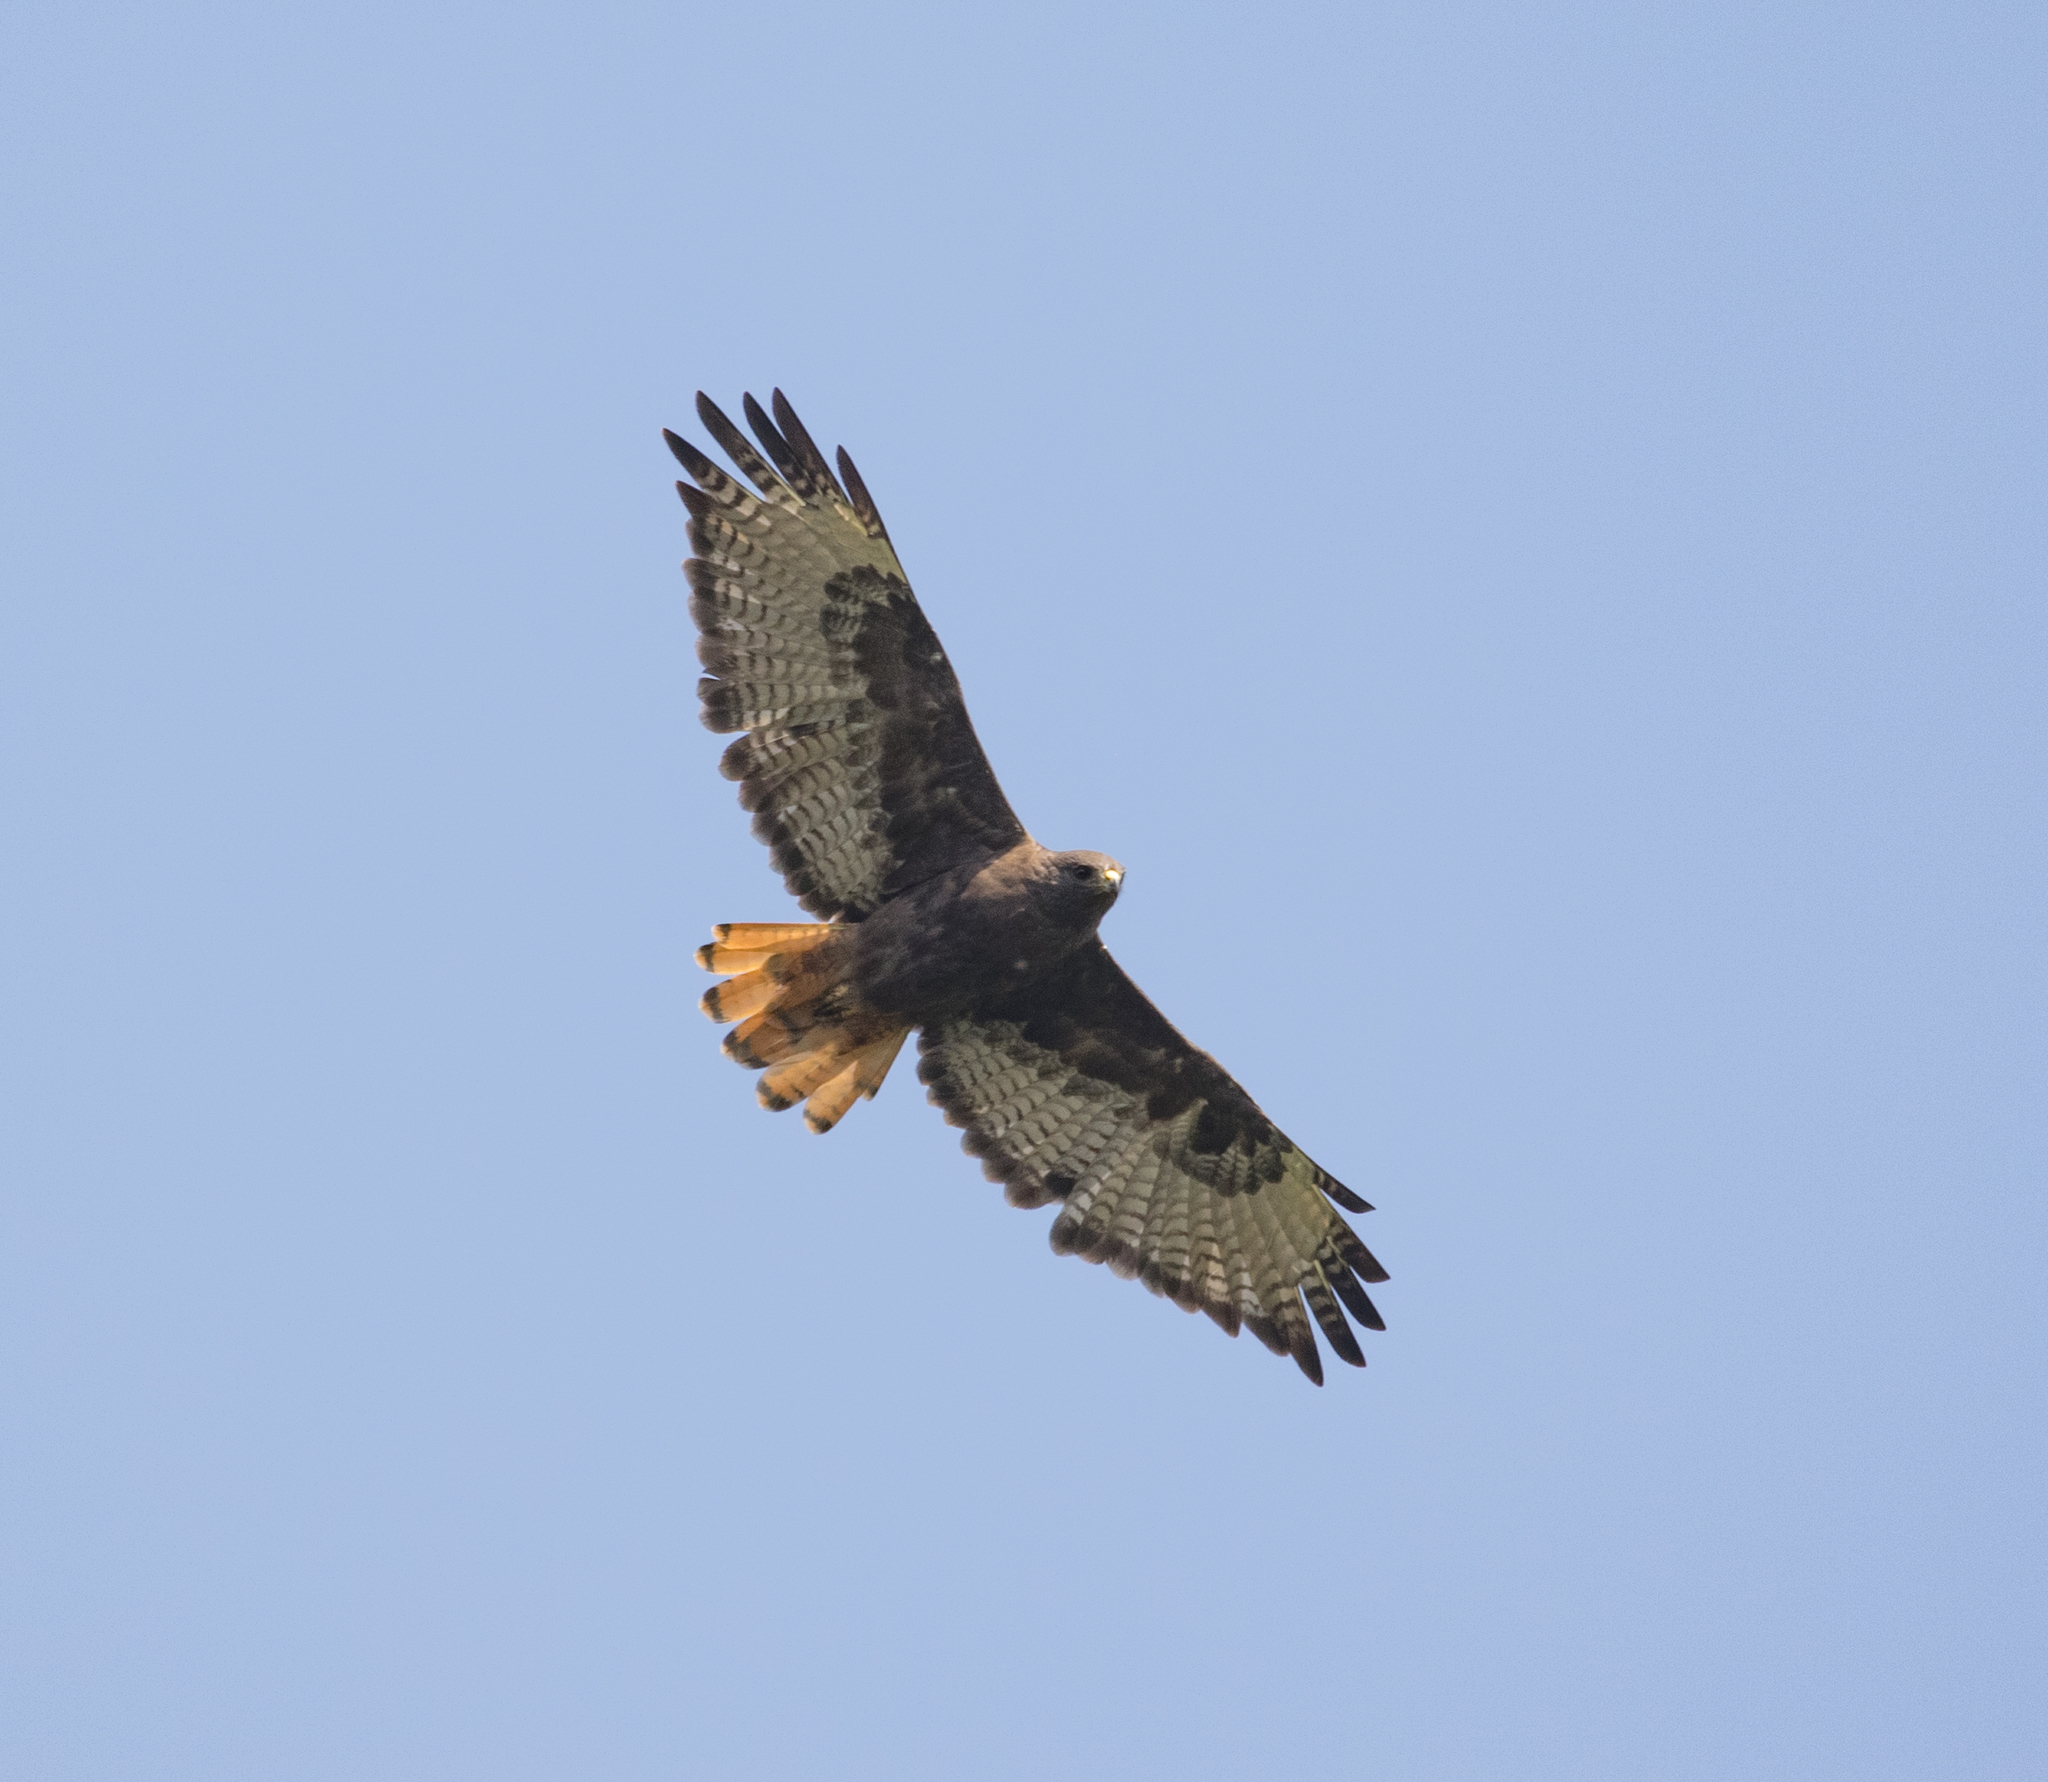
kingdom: Animalia
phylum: Chordata
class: Aves
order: Accipitriformes
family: Accipitridae
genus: Buteo
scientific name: Buteo jamaicensis
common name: Red-tailed hawk
